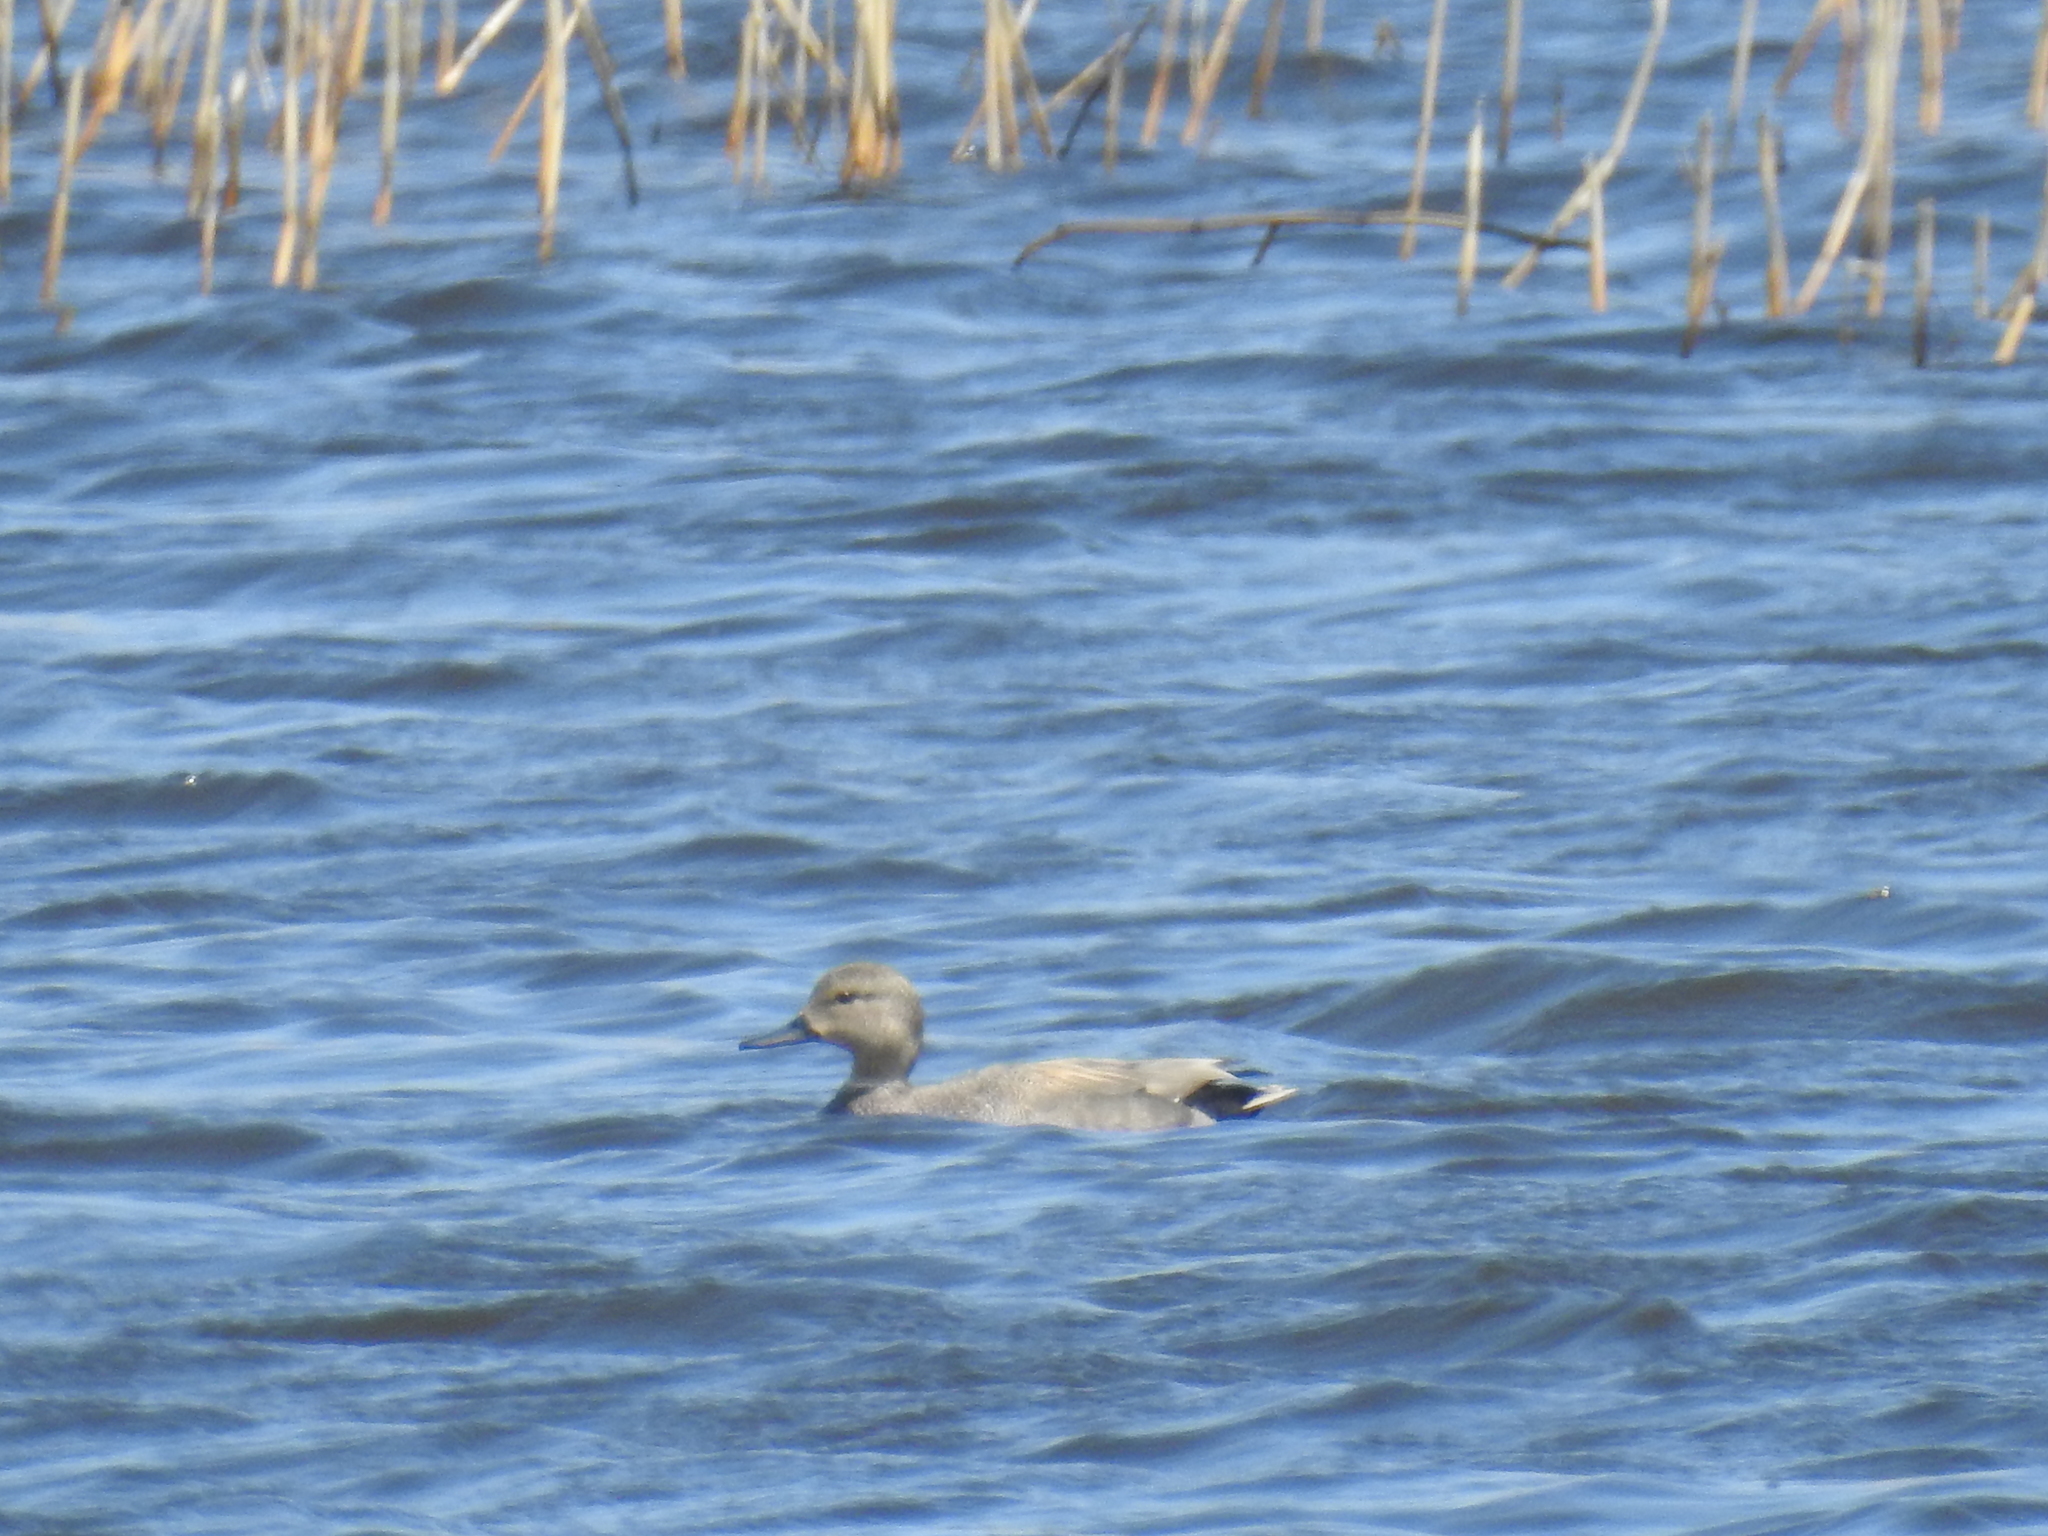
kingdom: Animalia
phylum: Chordata
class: Aves
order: Anseriformes
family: Anatidae
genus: Mareca
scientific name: Mareca strepera
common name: Gadwall
